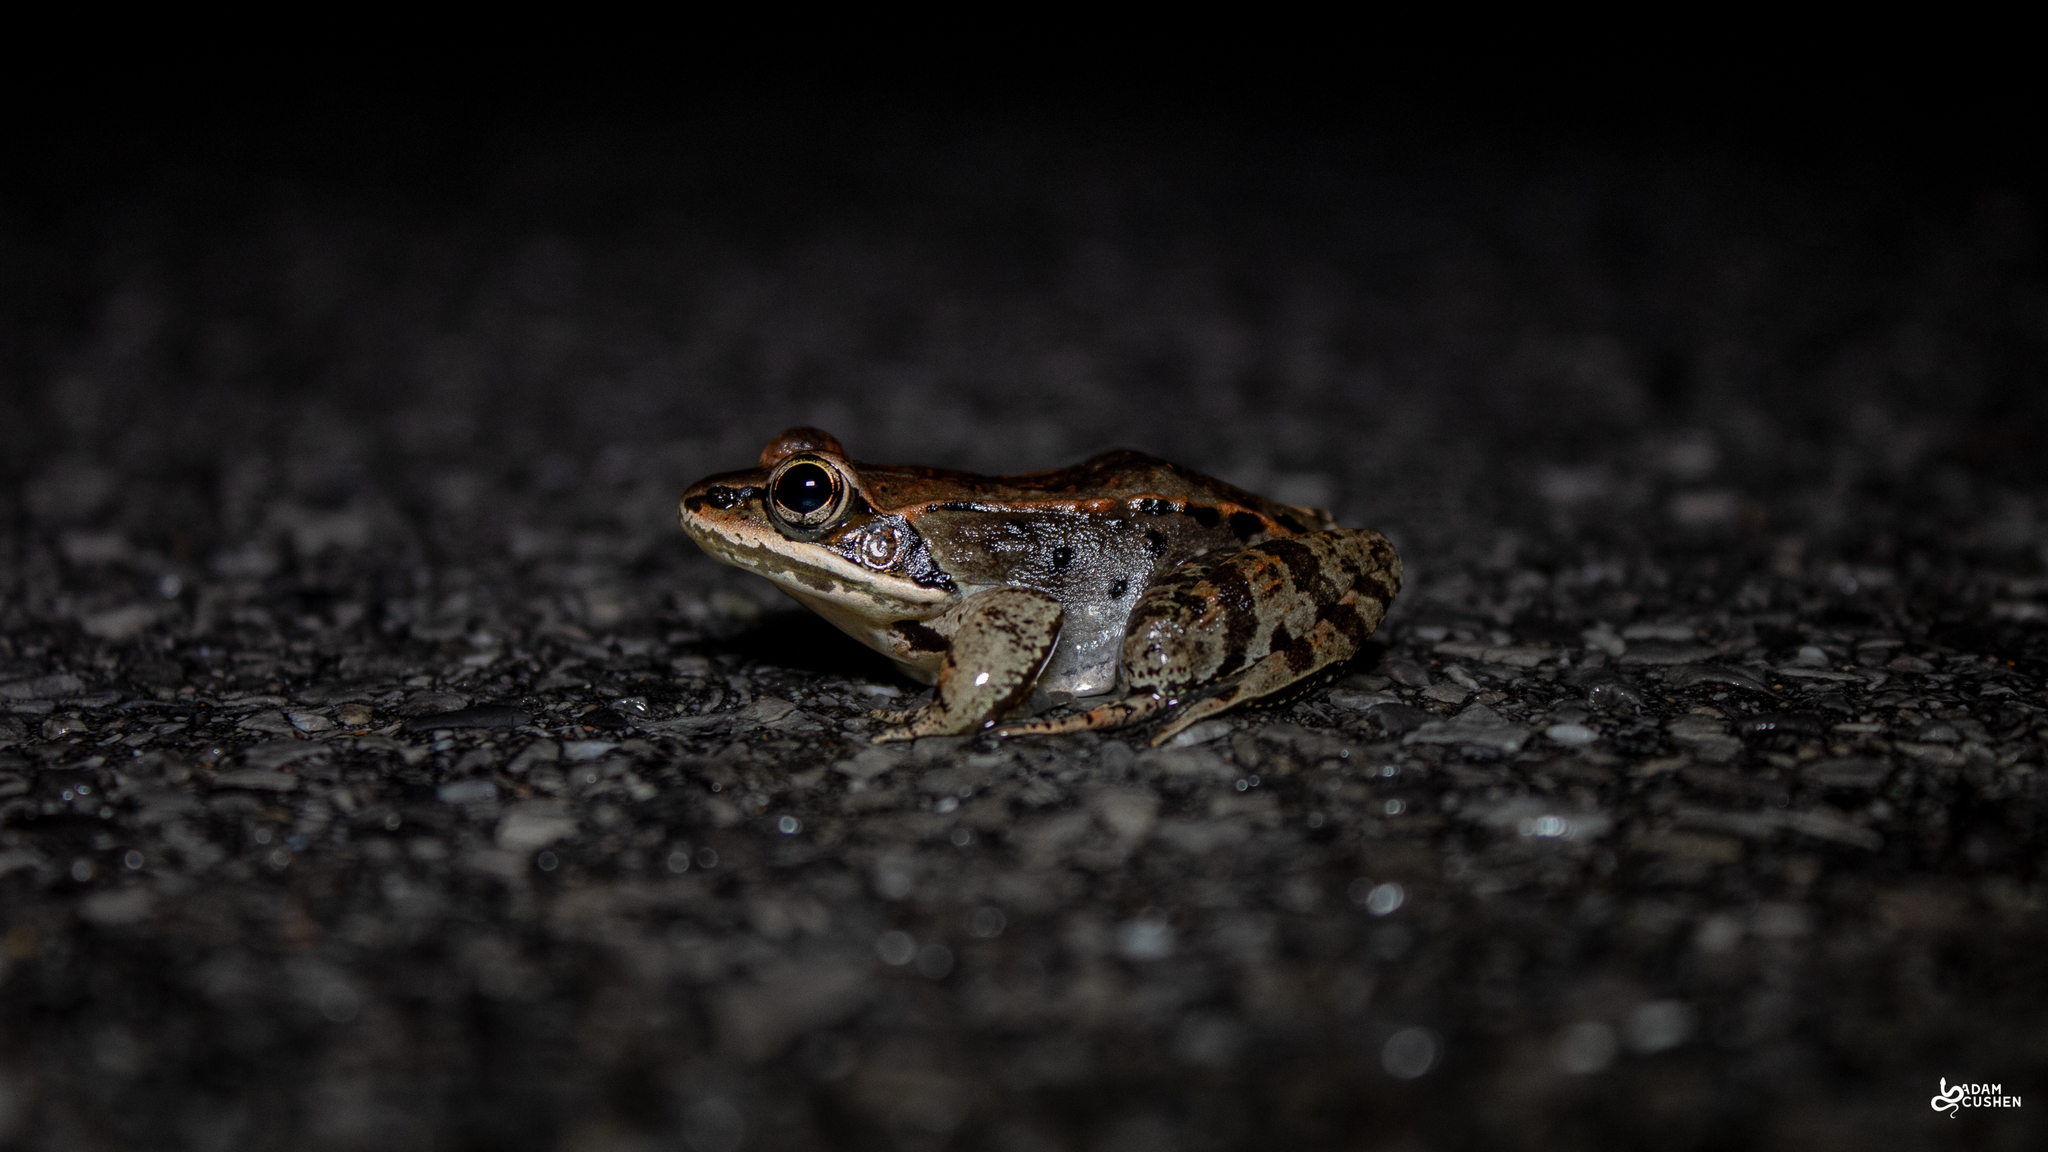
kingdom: Animalia
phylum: Chordata
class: Amphibia
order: Anura
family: Ranidae
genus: Lithobates
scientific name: Lithobates sylvaticus
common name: Wood frog
